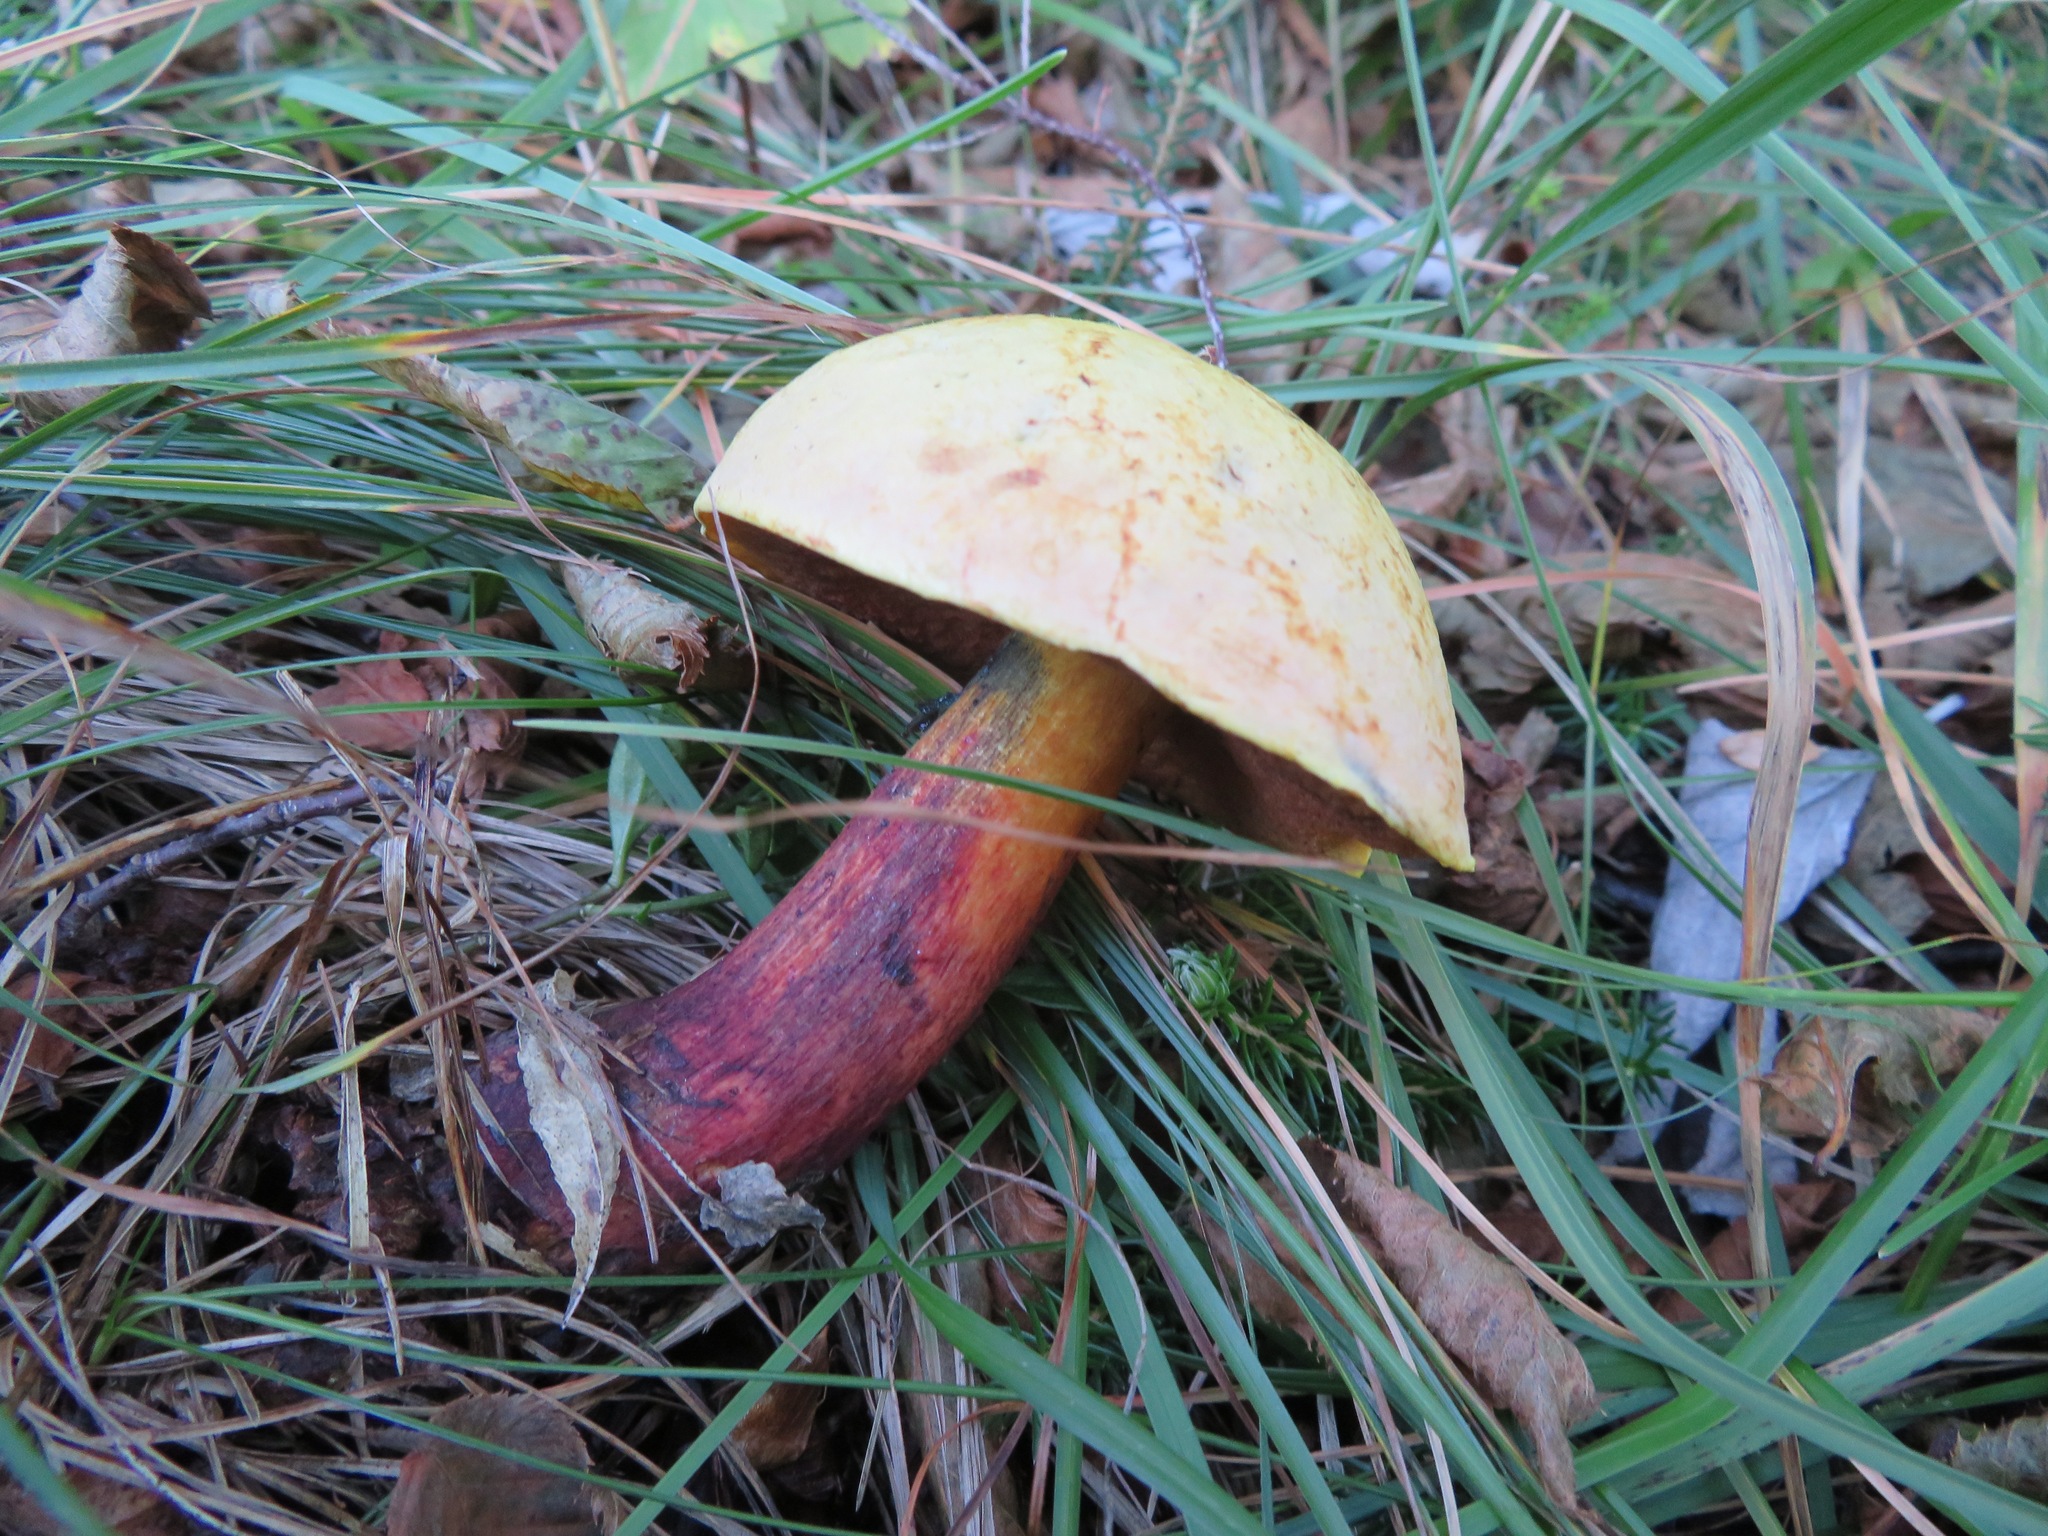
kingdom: Fungi
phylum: Basidiomycota
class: Agaricomycetes
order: Boletales
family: Boletaceae
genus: Suillellus
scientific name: Suillellus luridus
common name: Lurid bolete
